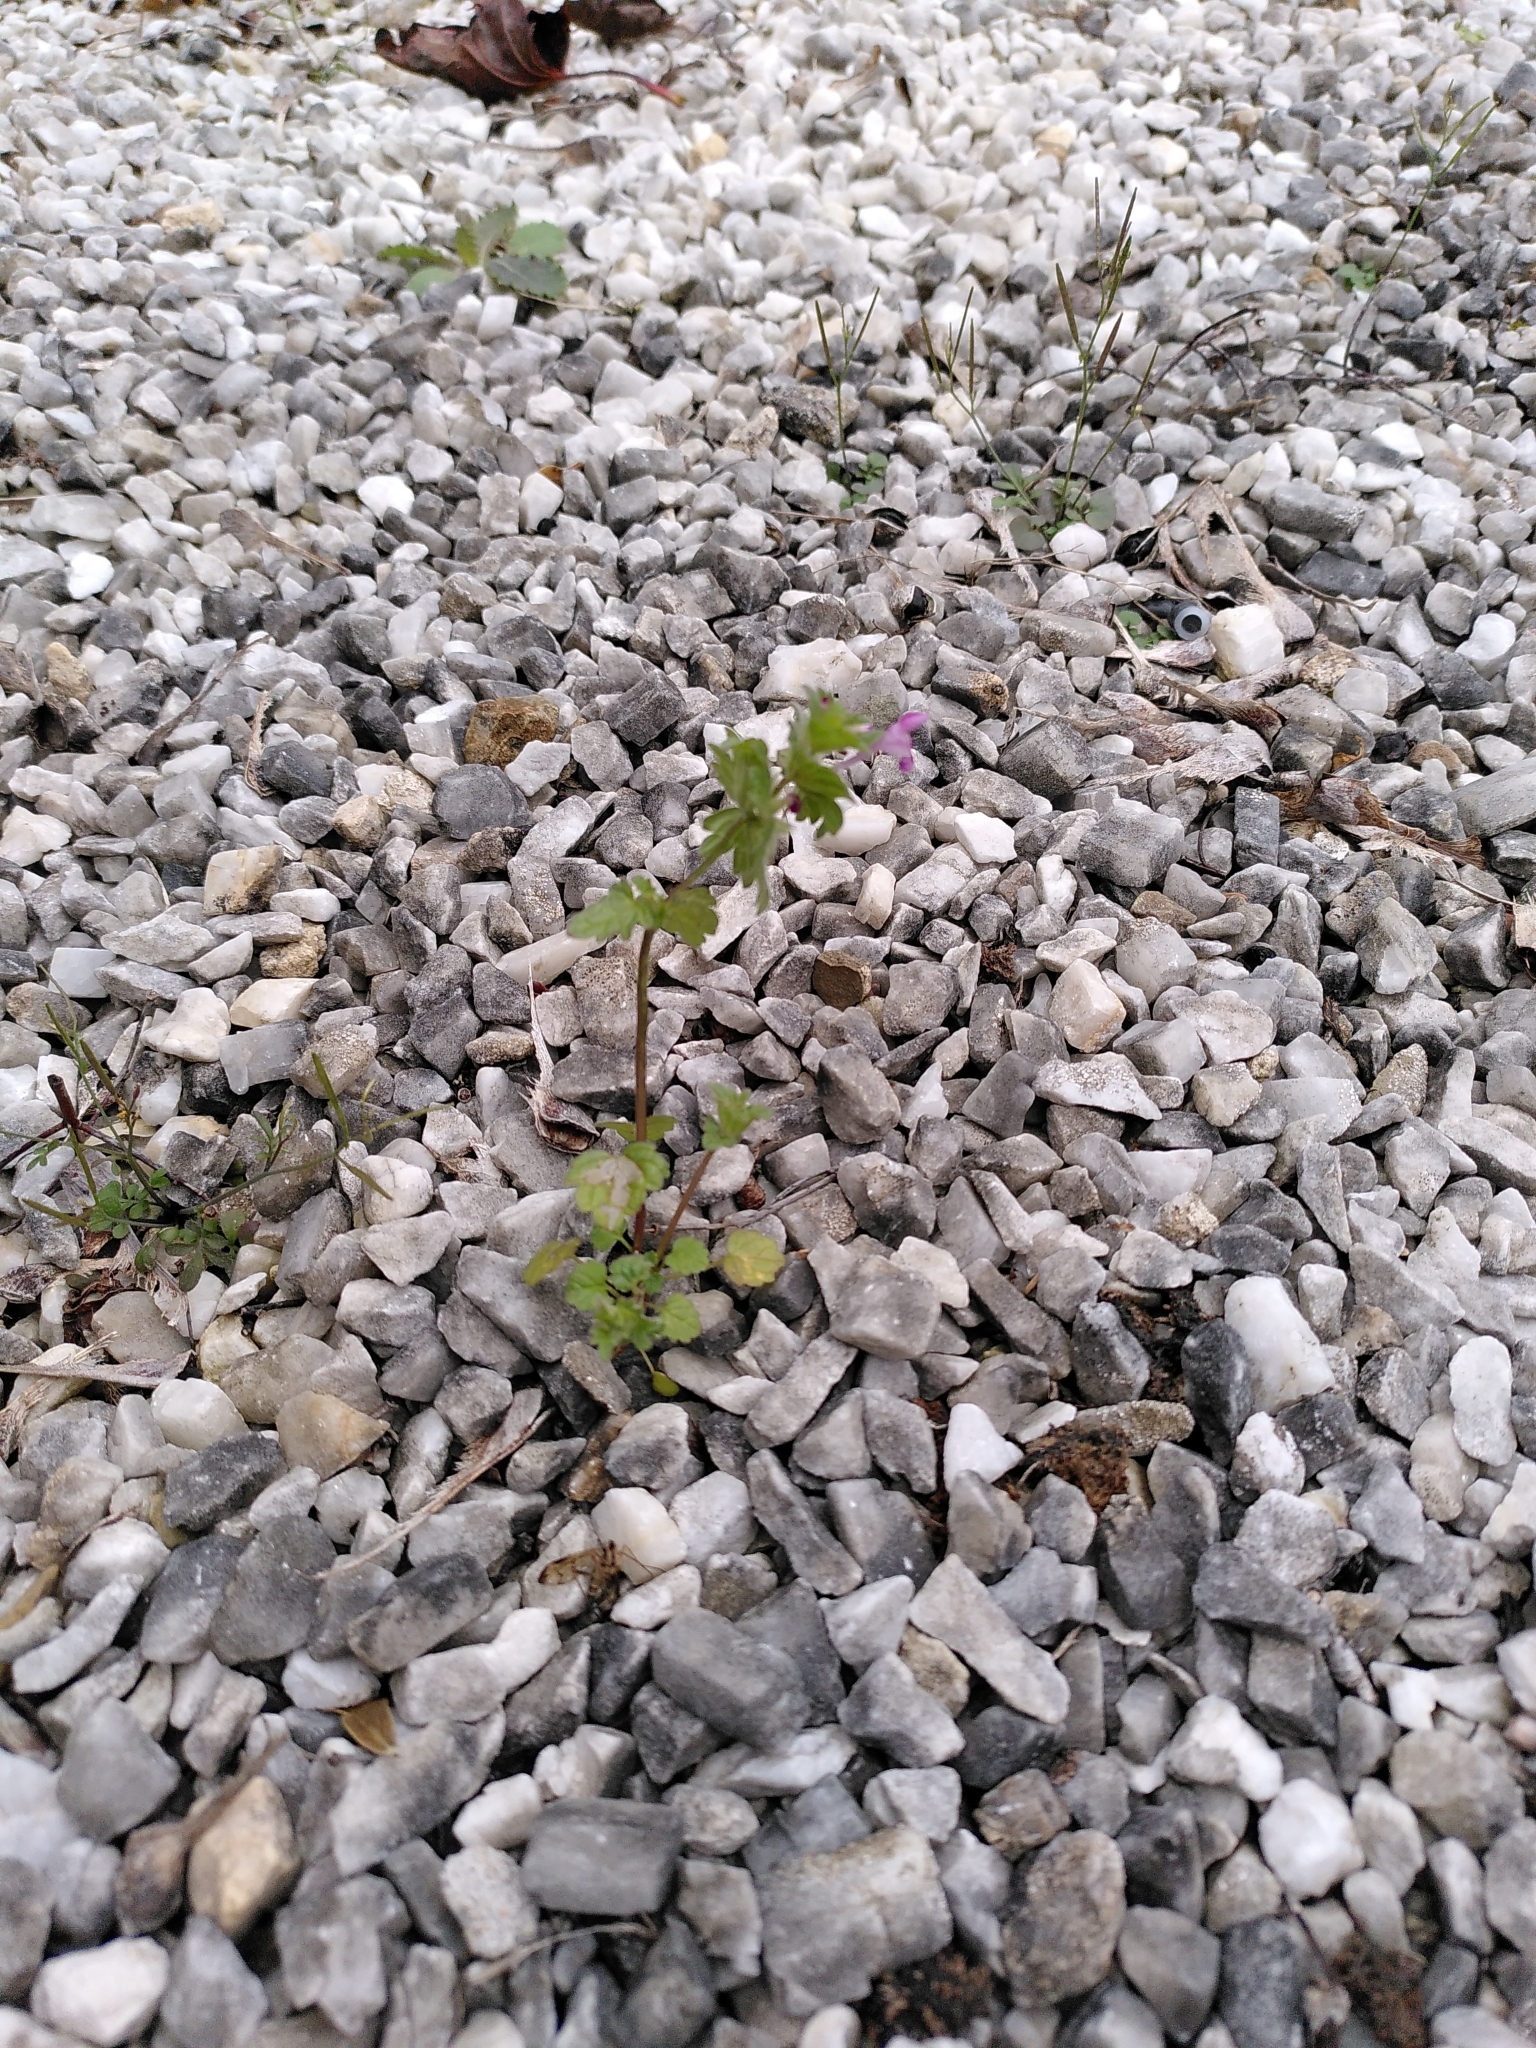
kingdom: Plantae
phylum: Tracheophyta
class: Magnoliopsida
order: Lamiales
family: Lamiaceae
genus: Lamium
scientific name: Lamium amplexicaule
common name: Henbit dead-nettle
